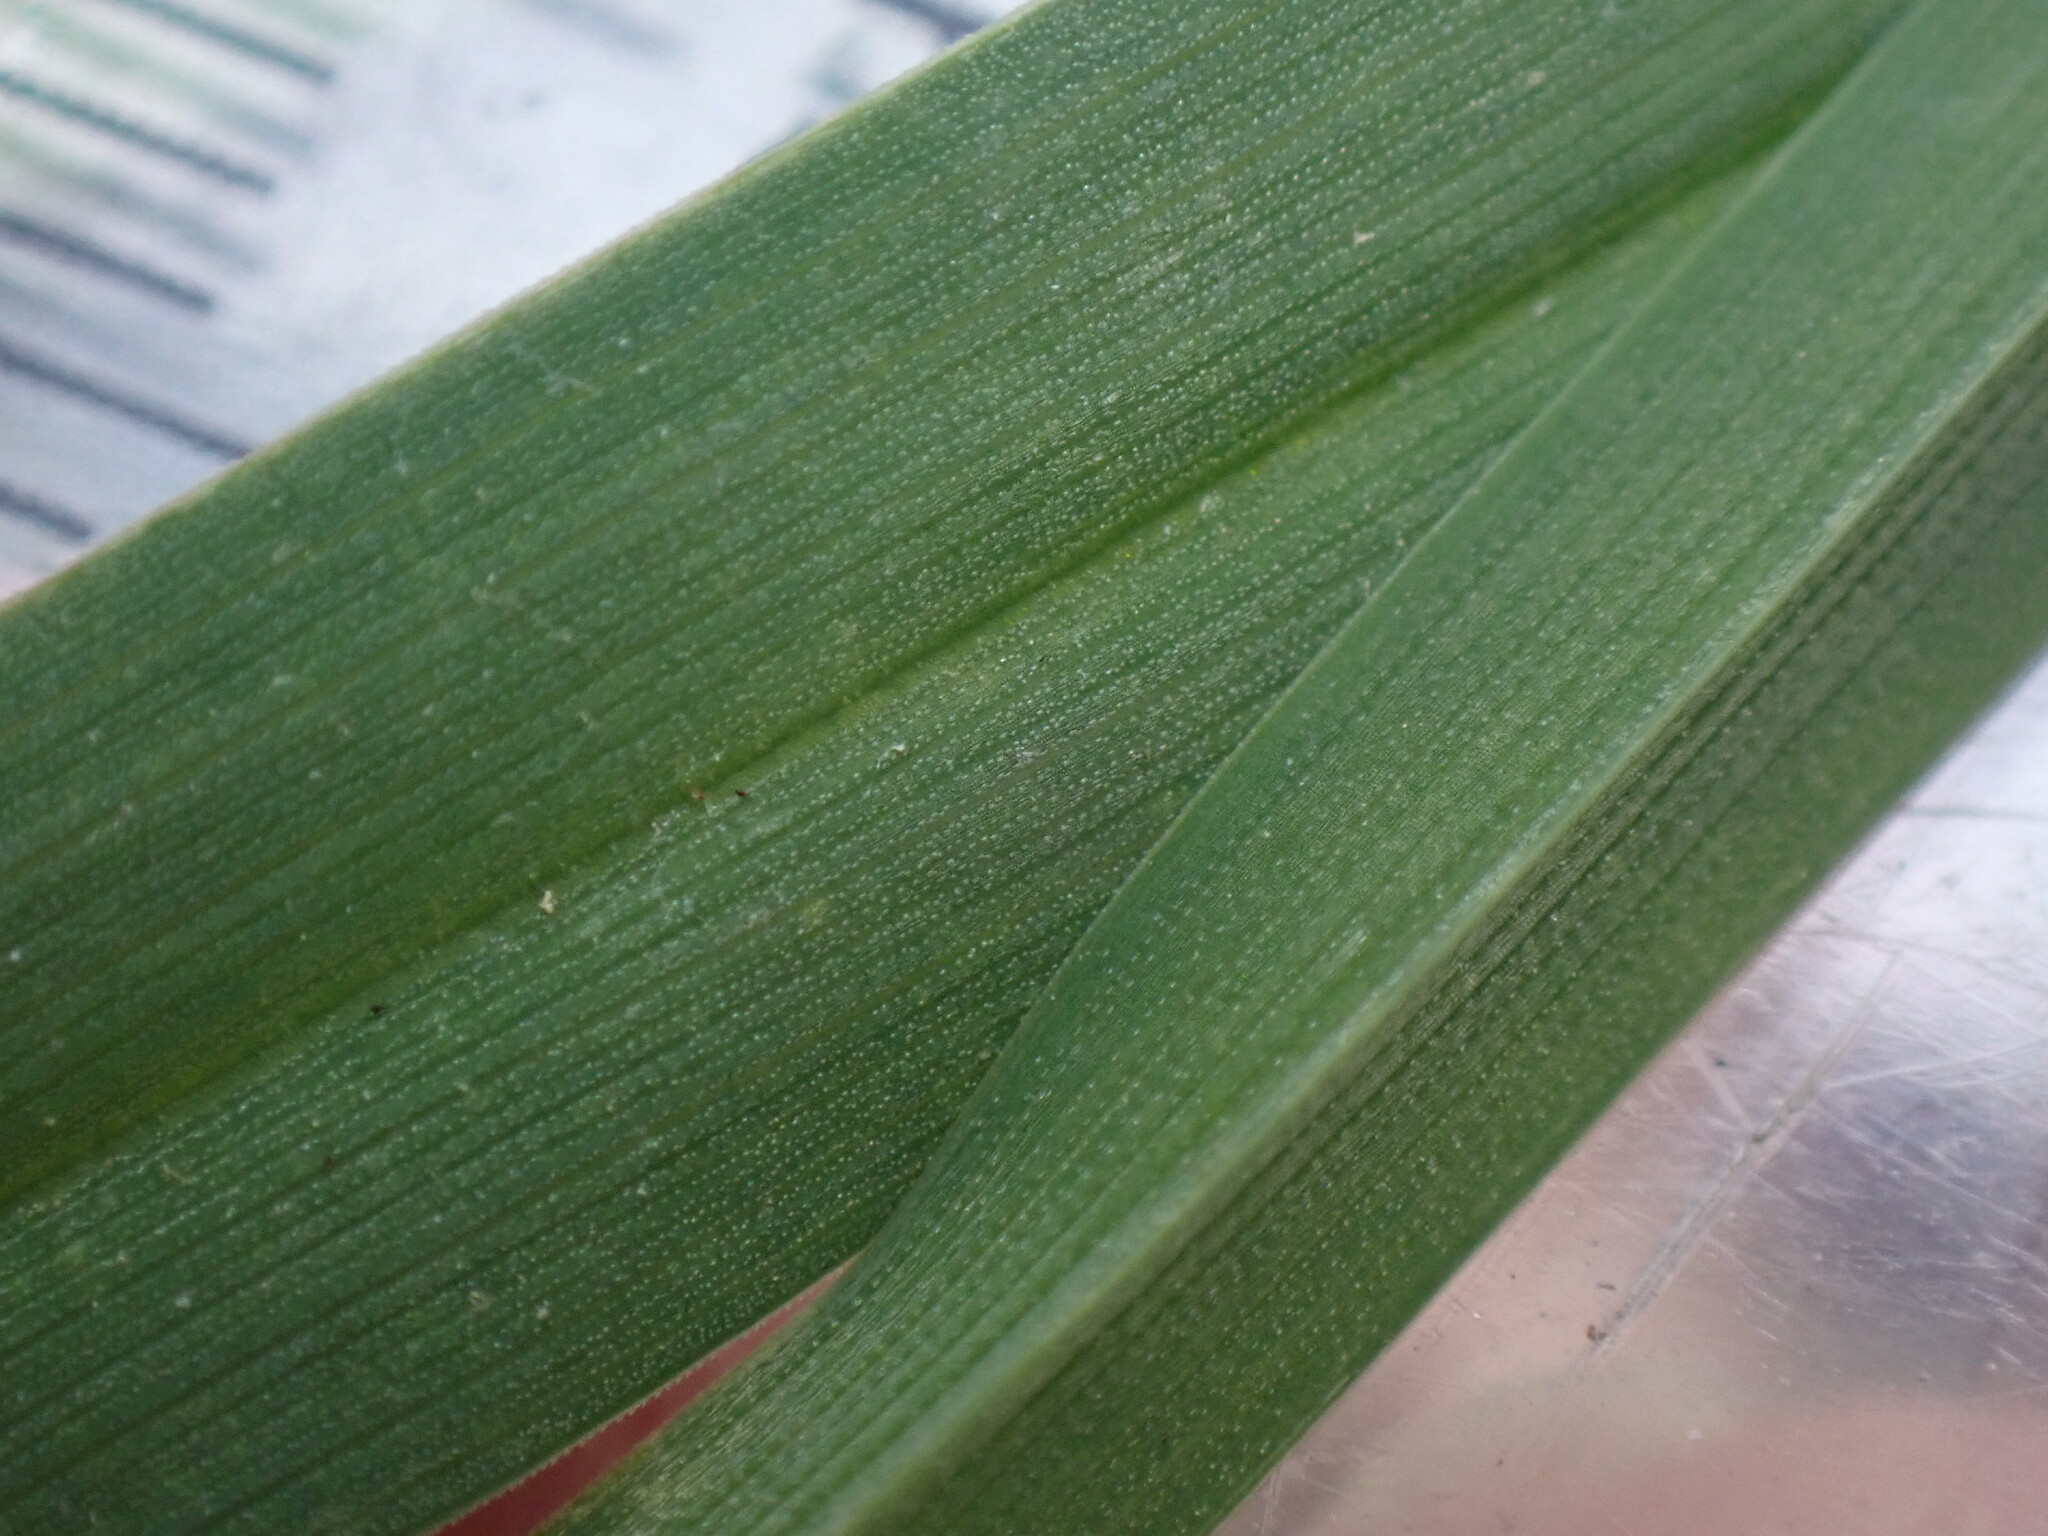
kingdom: Plantae
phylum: Tracheophyta
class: Liliopsida
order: Poales
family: Poaceae
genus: Dactylis
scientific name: Dactylis glomerata
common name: Orchardgrass
